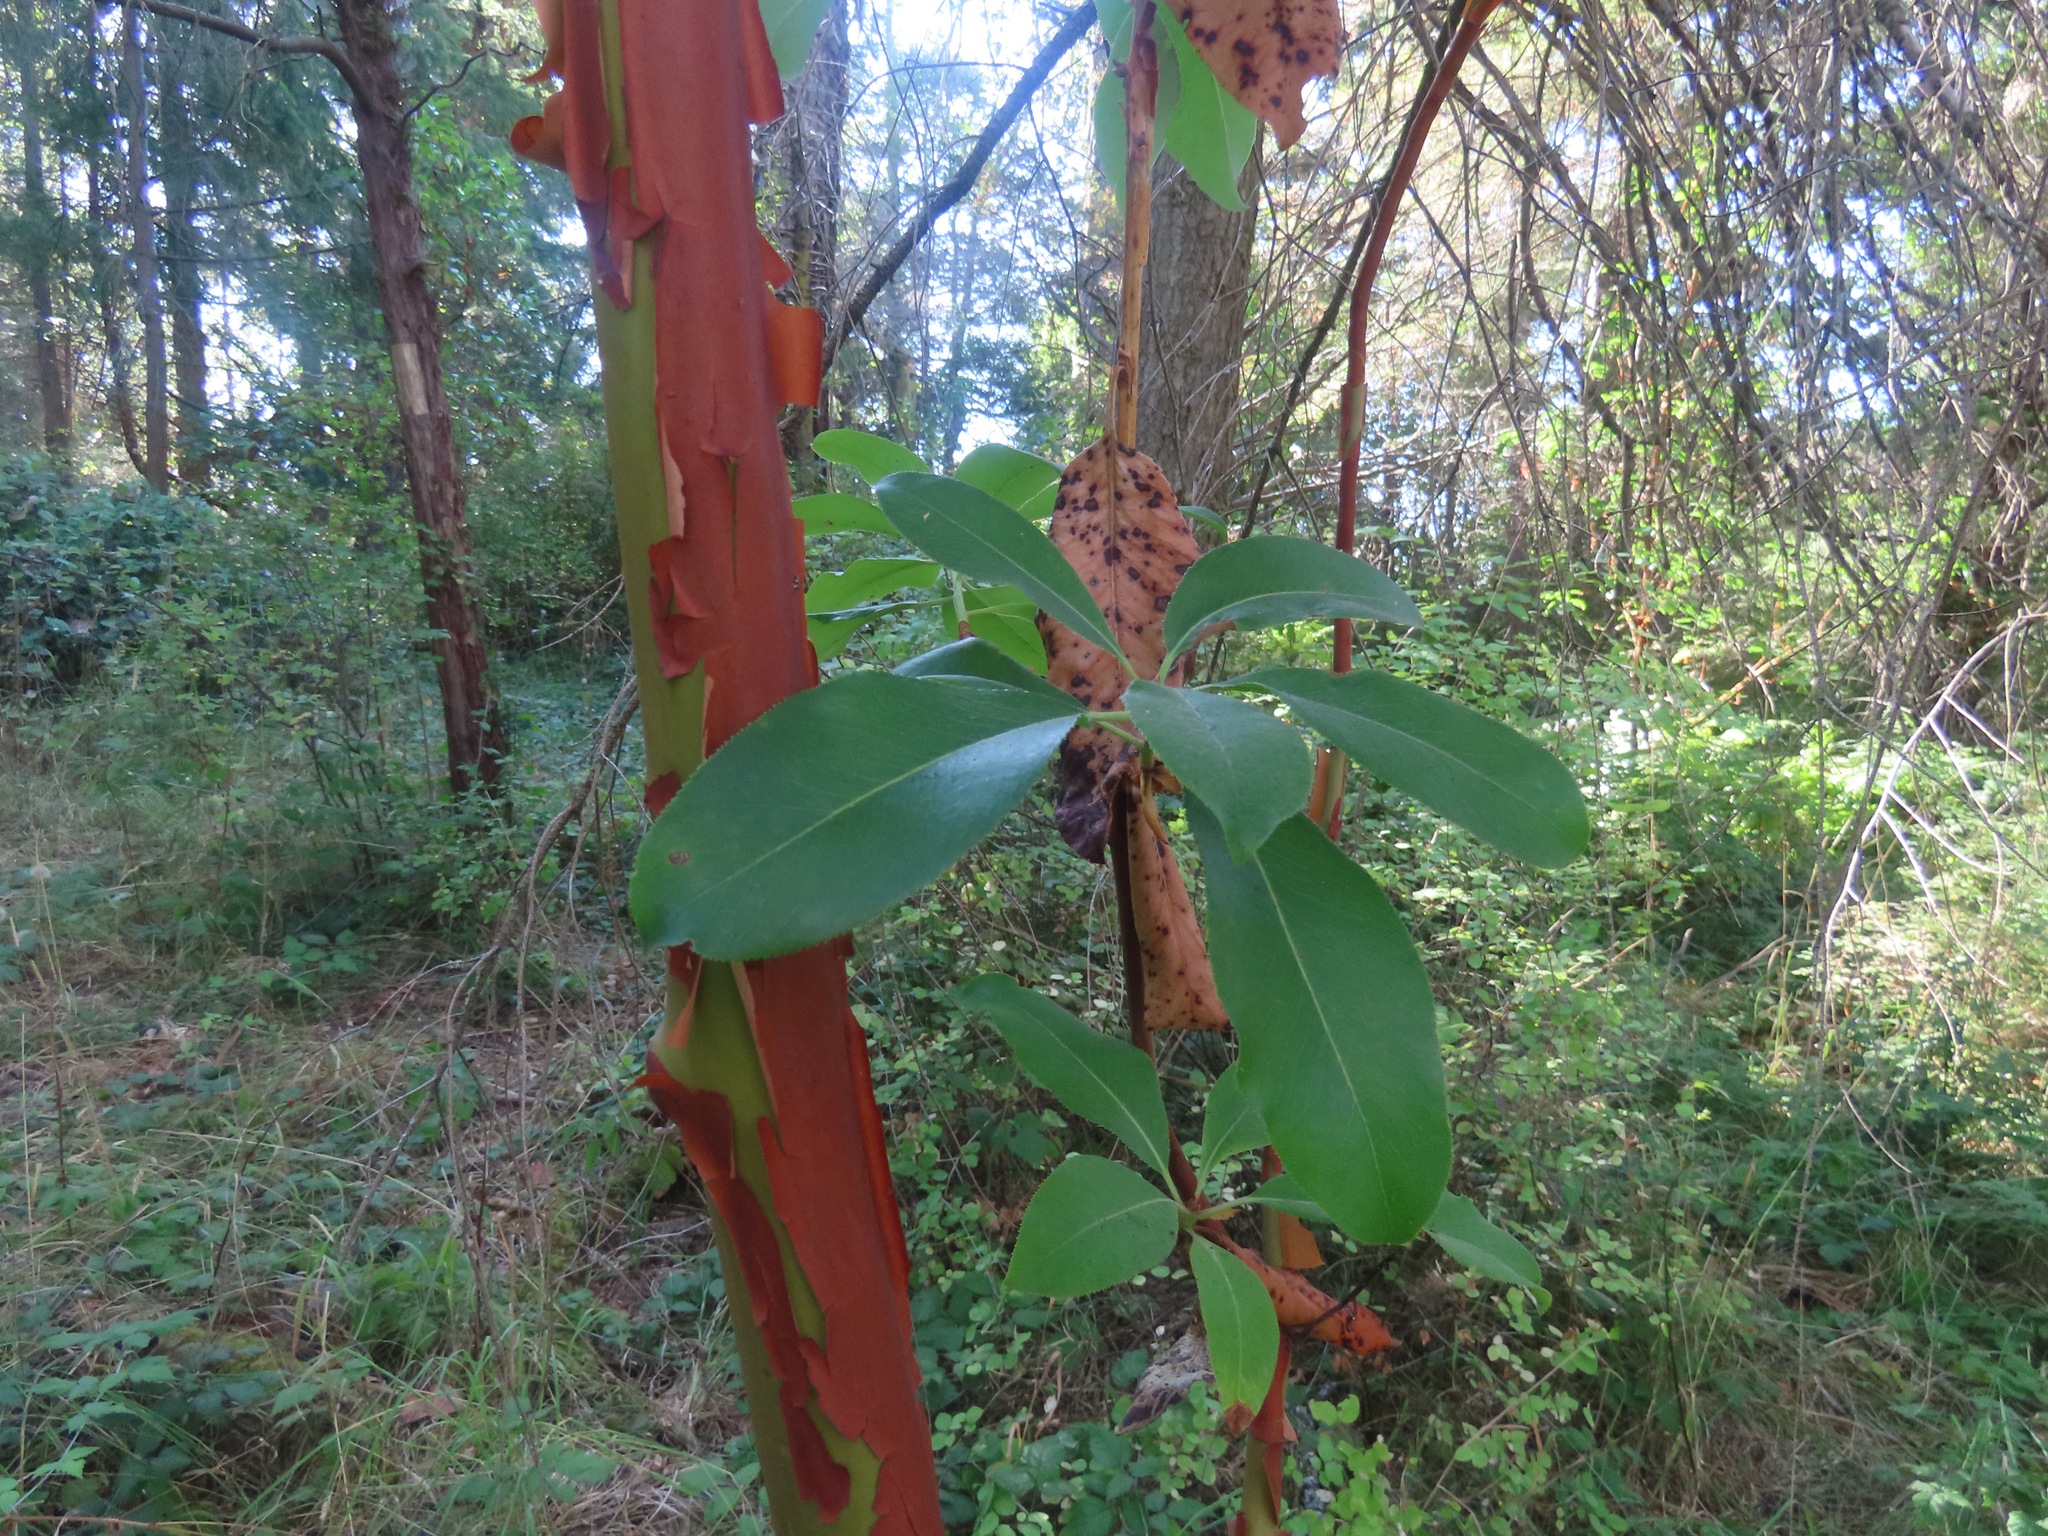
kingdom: Plantae
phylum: Tracheophyta
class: Magnoliopsida
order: Ericales
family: Ericaceae
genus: Arbutus
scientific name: Arbutus menziesii
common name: Pacific madrone
